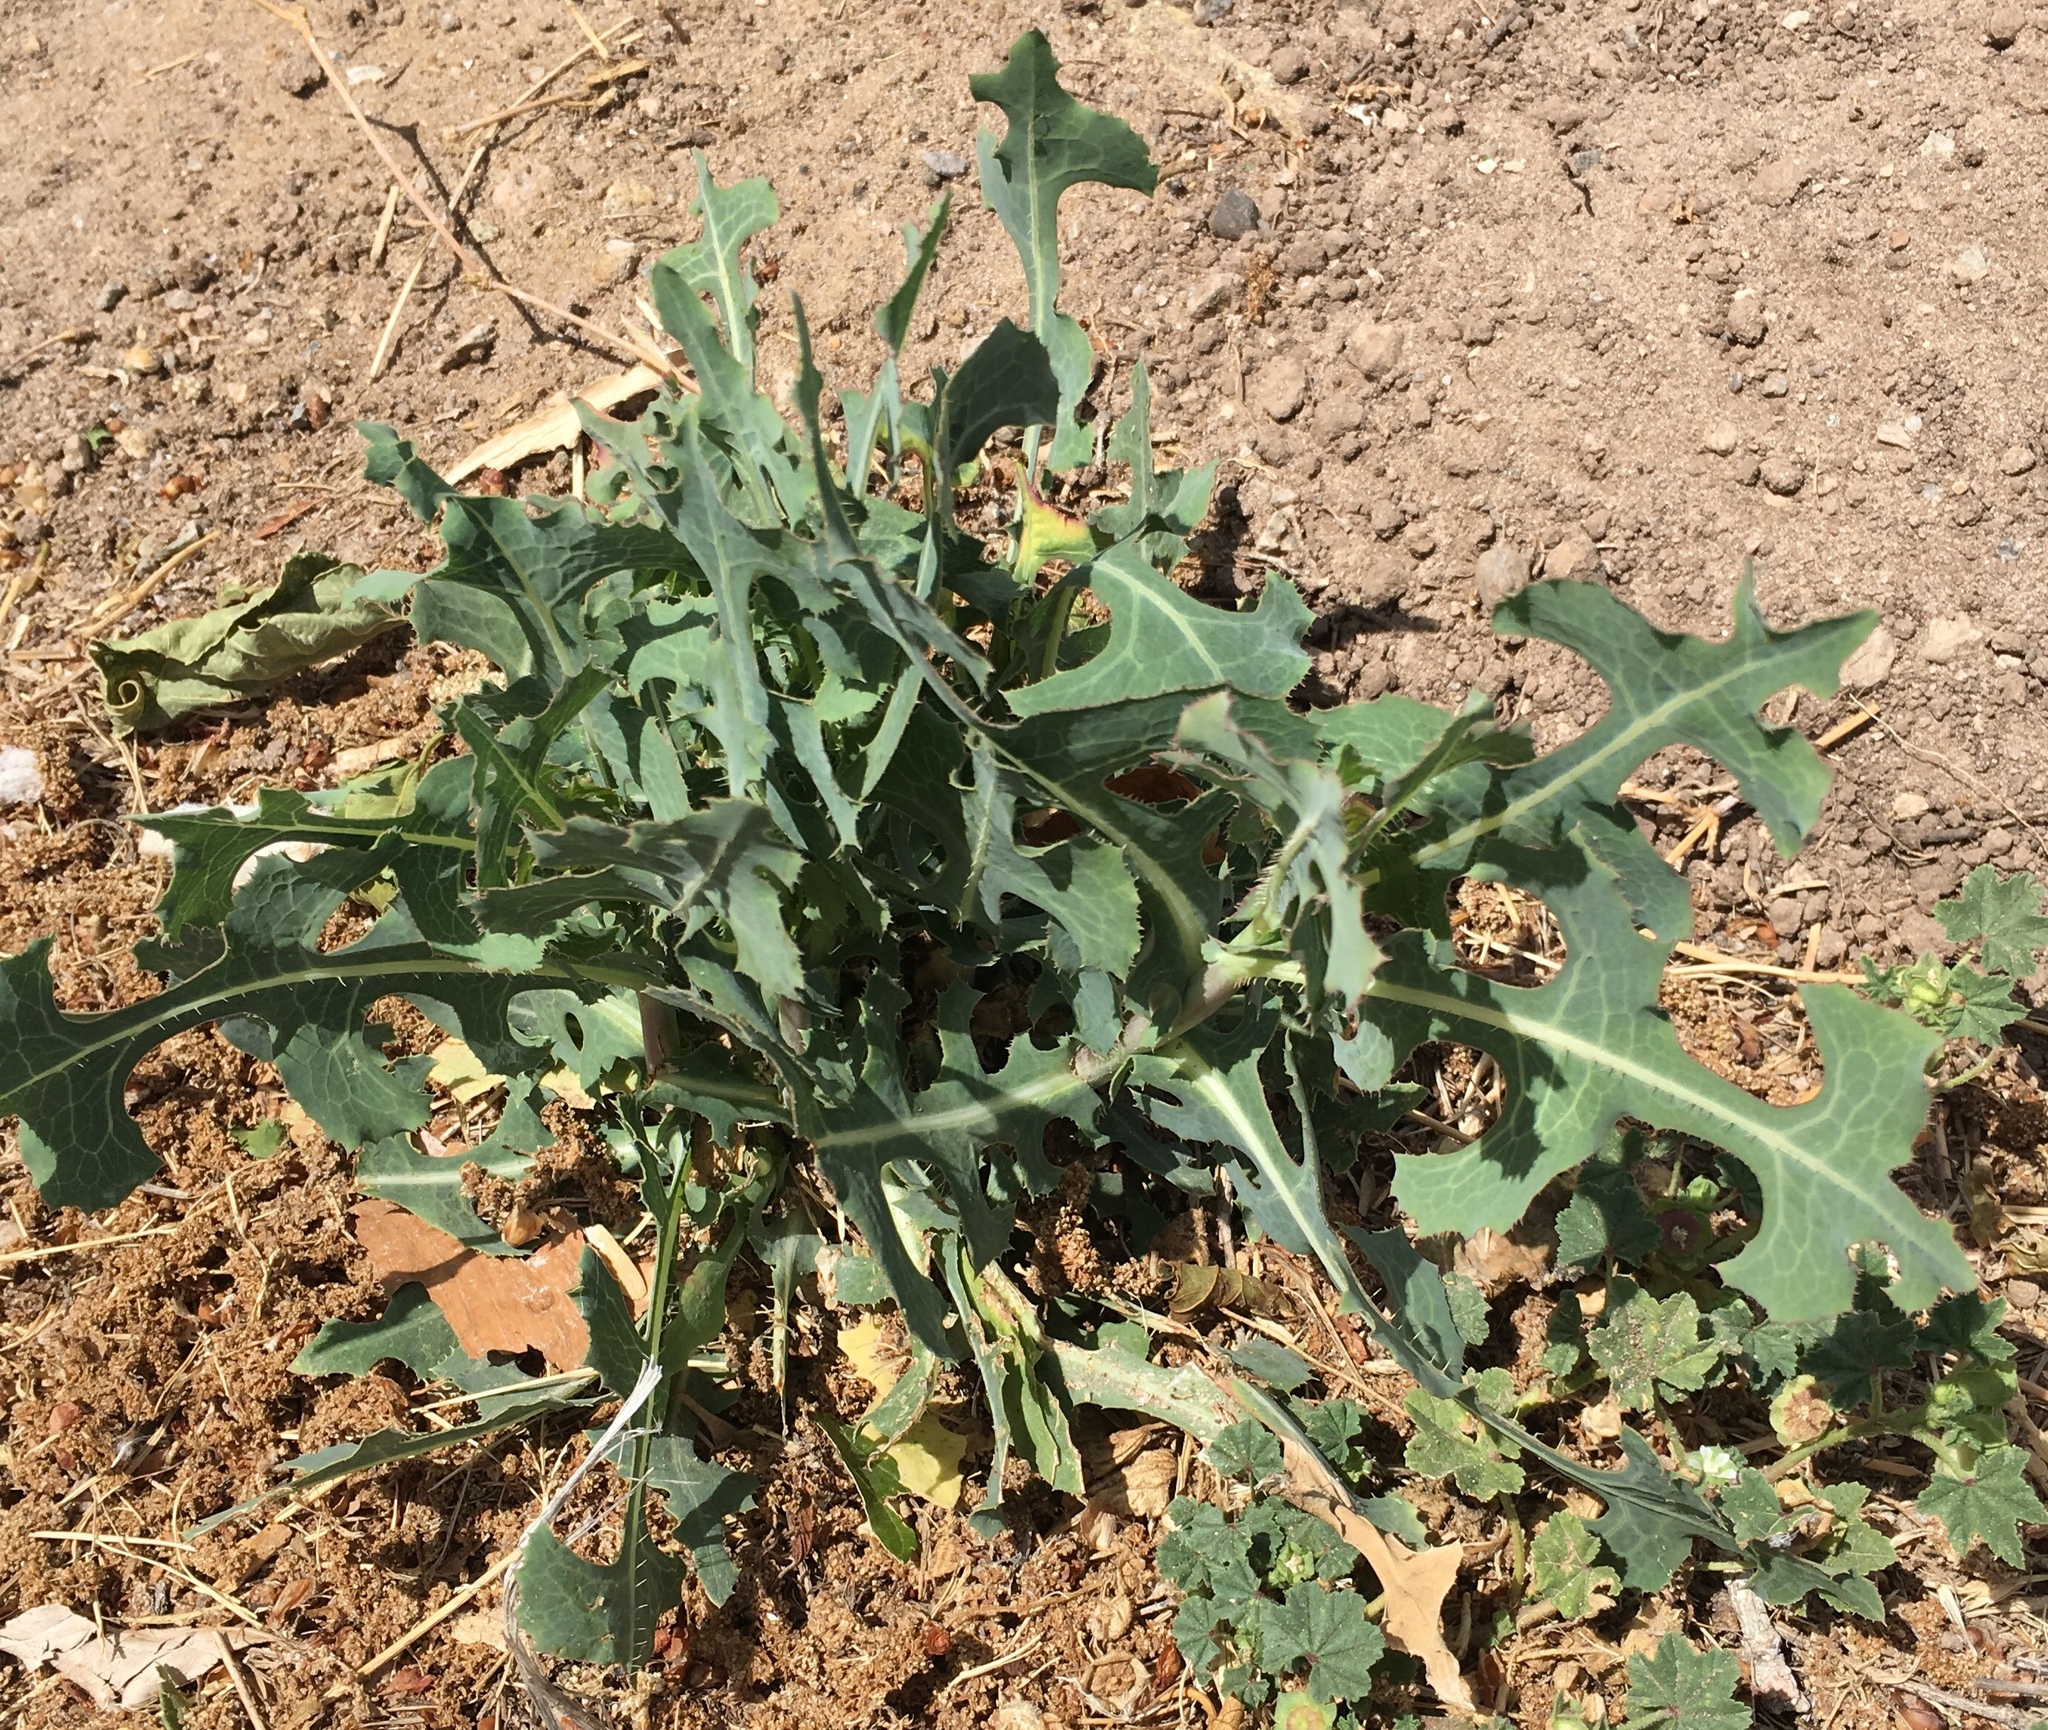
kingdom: Plantae
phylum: Tracheophyta
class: Magnoliopsida
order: Asterales
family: Asteraceae
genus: Lactuca
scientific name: Lactuca serriola
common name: Prickly lettuce
